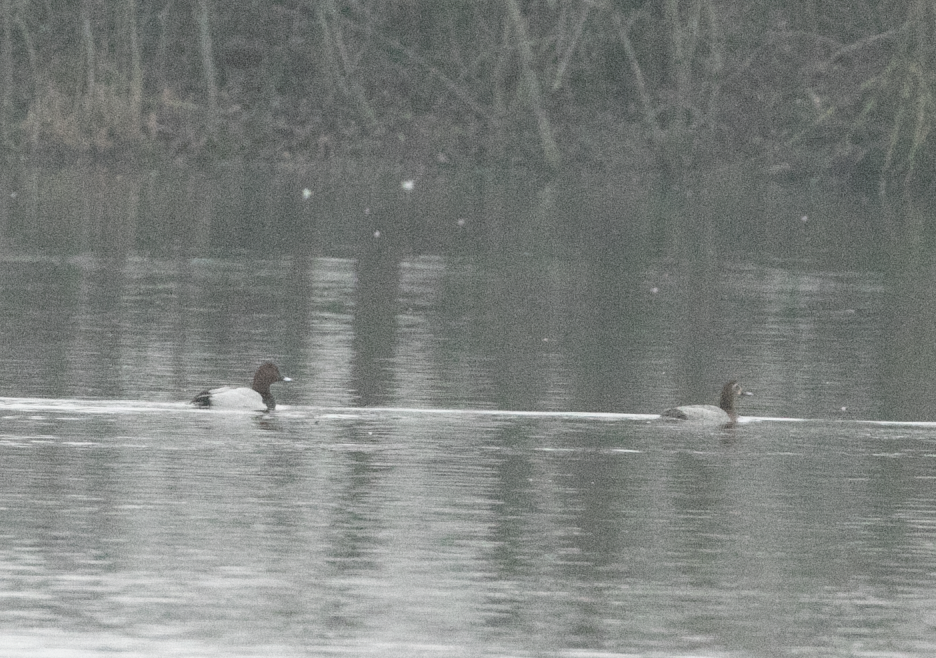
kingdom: Animalia
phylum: Chordata
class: Aves
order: Anseriformes
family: Anatidae
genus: Aythya
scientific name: Aythya ferina
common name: Common pochard
